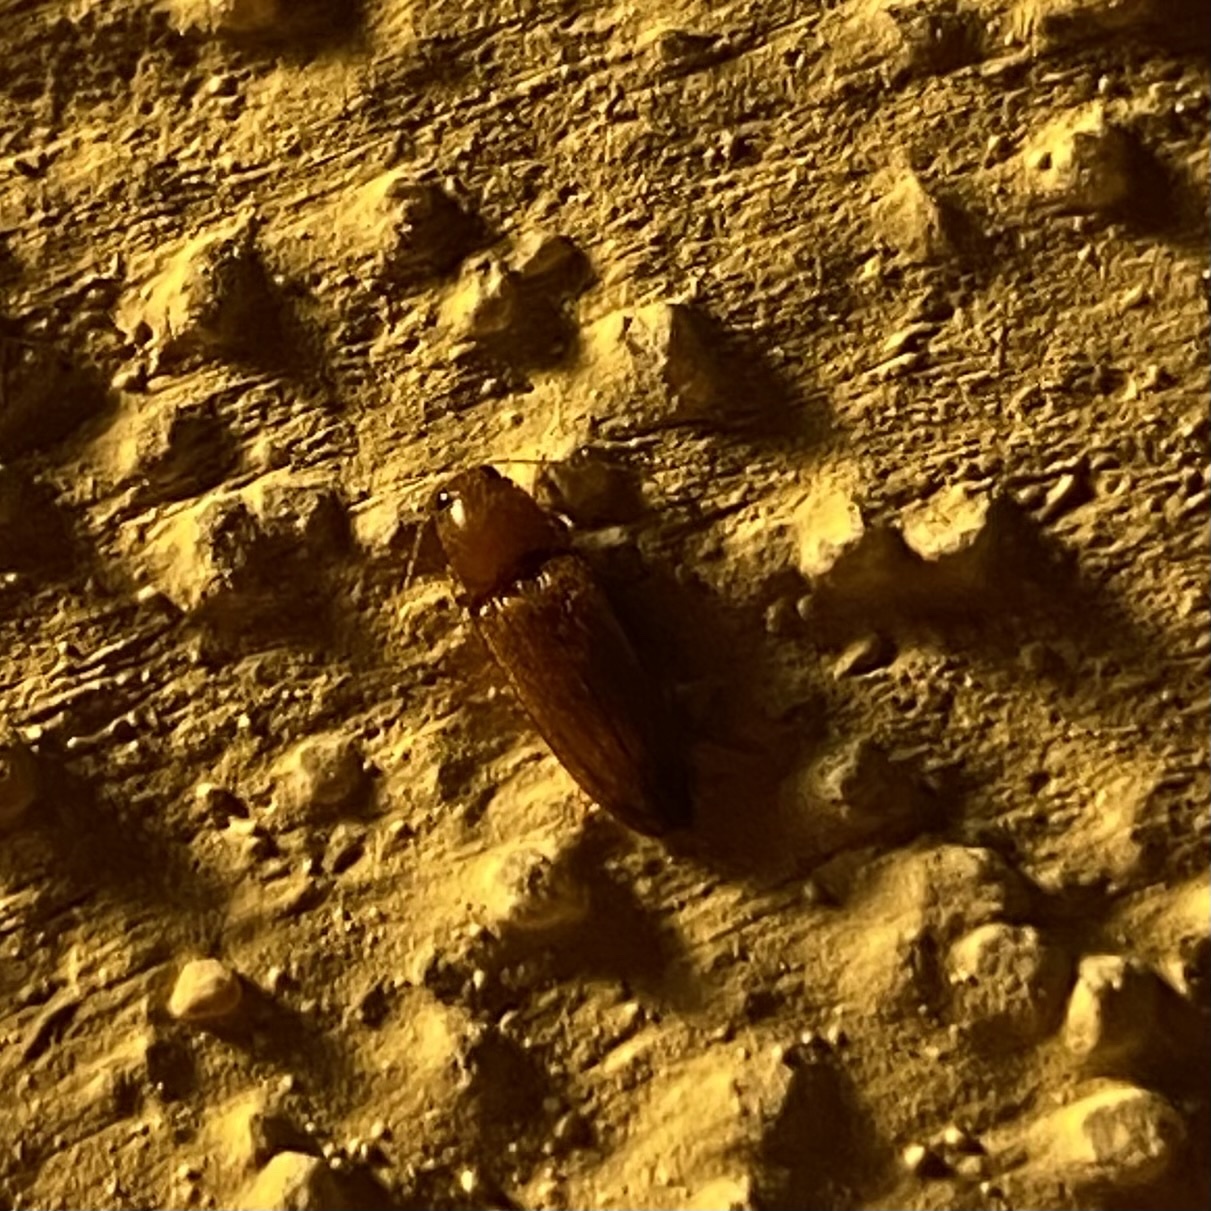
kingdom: Animalia
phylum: Arthropoda
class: Insecta
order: Coleoptera
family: Elateridae
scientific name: Elateridae
